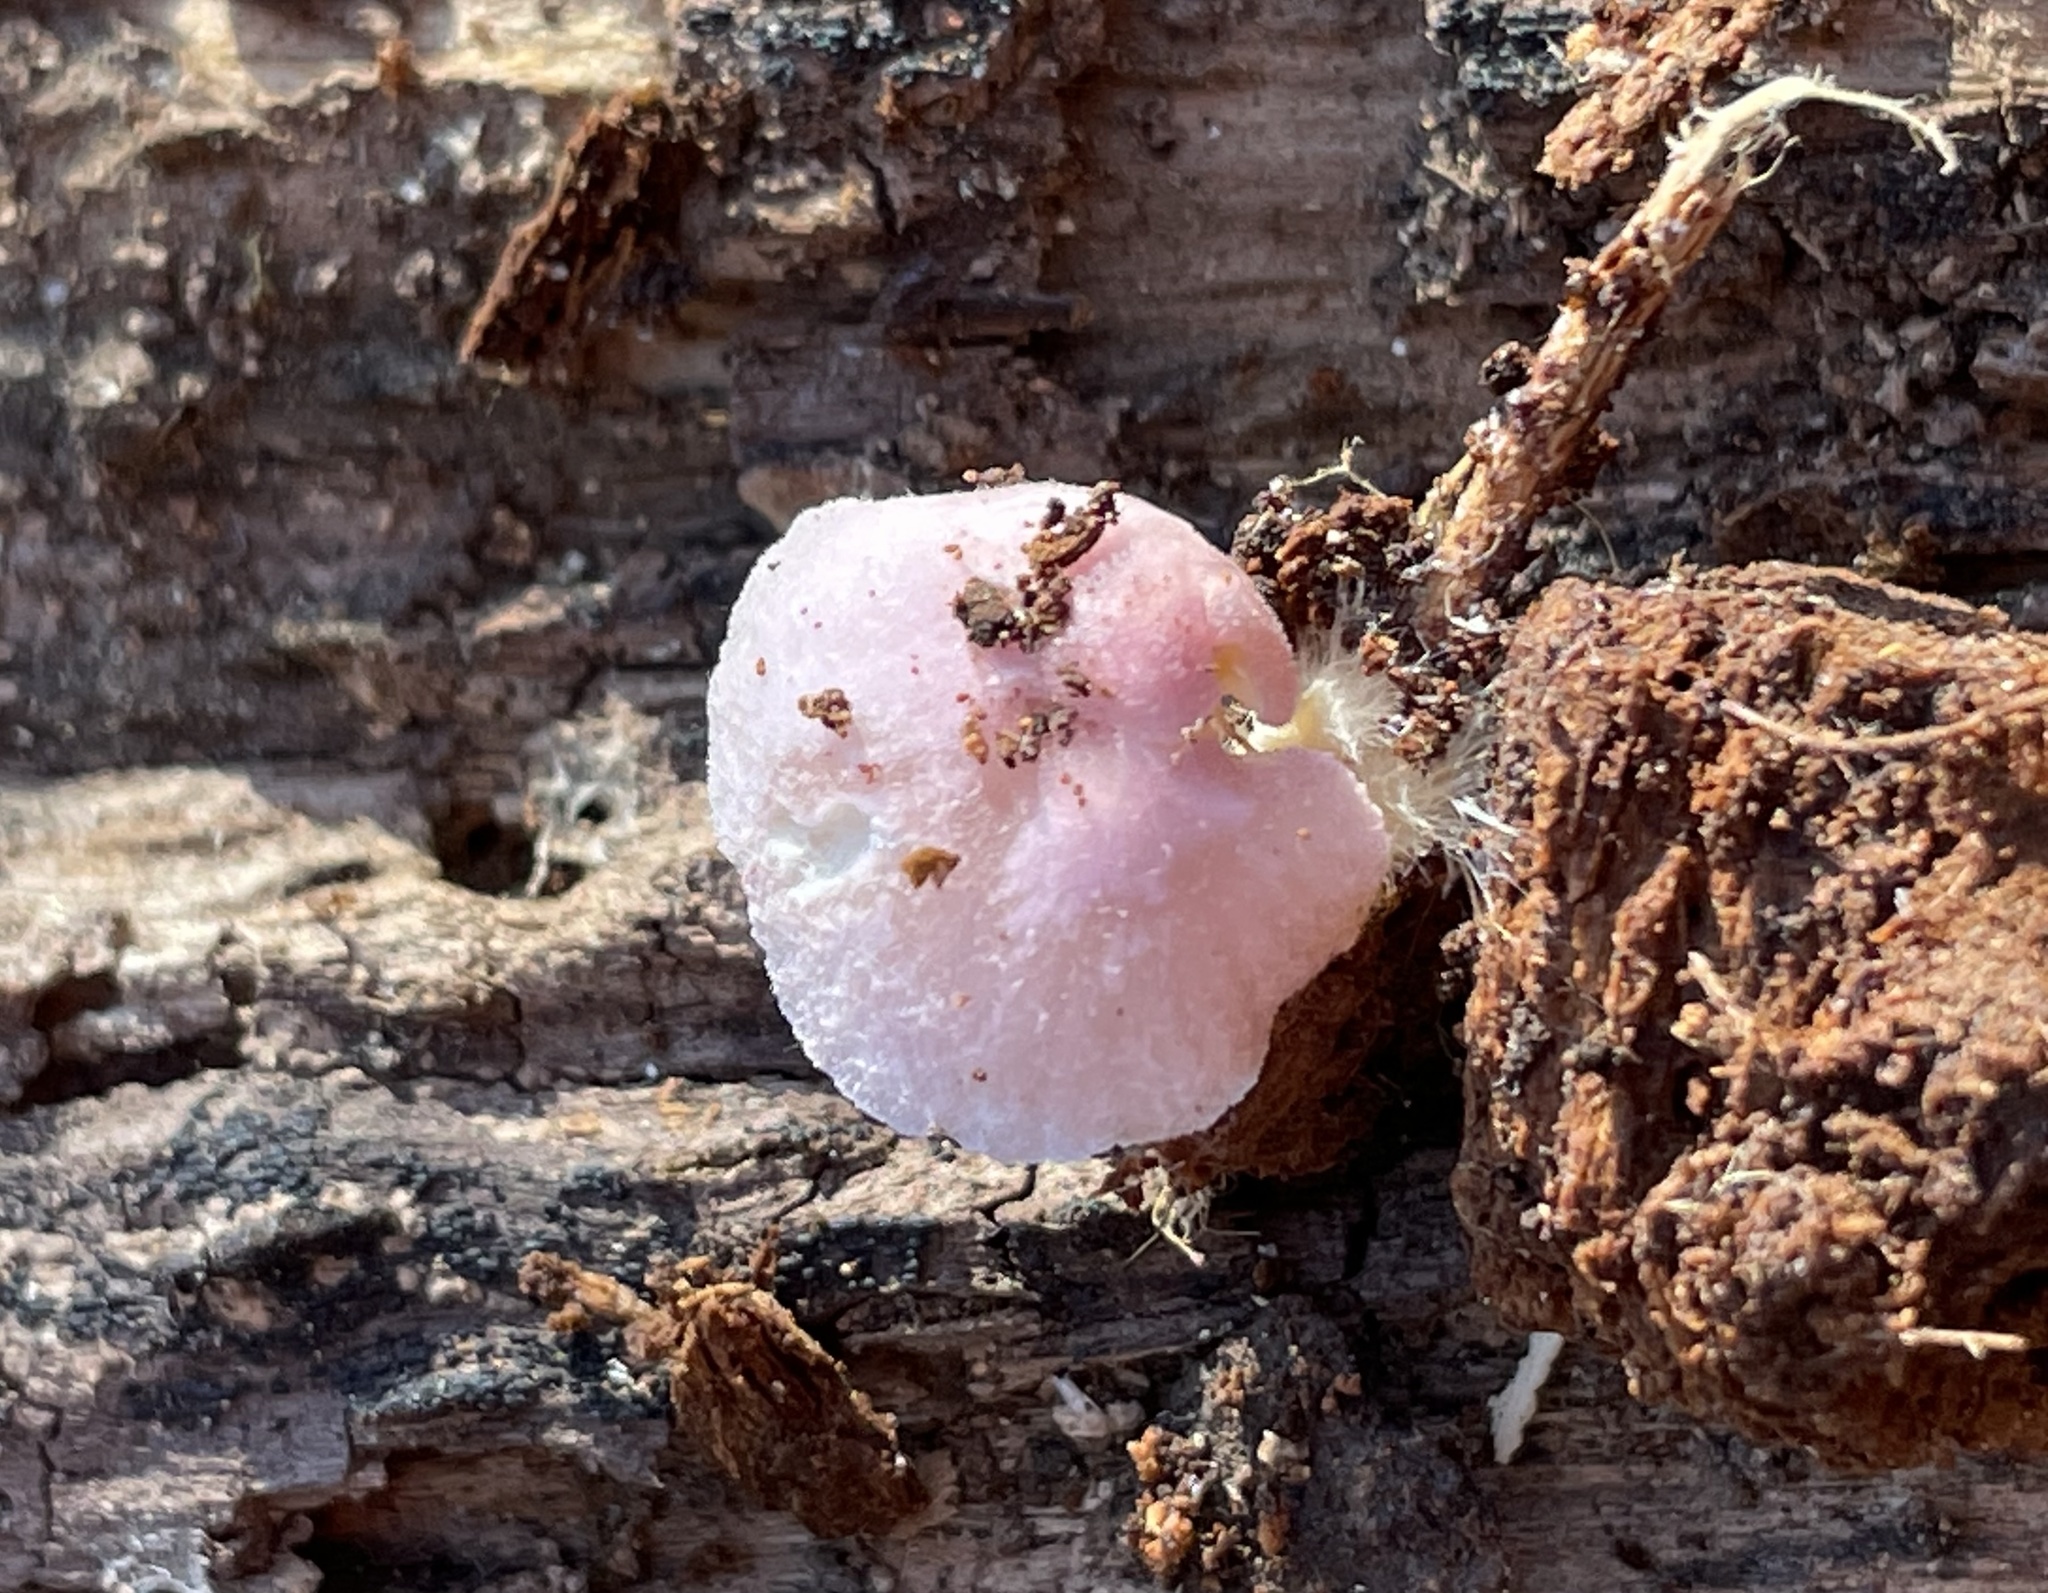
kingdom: Fungi
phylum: Basidiomycota
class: Agaricomycetes
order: Agaricales
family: Mycenaceae
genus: Mycena
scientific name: Mycena pura
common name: Lilac bonnet
